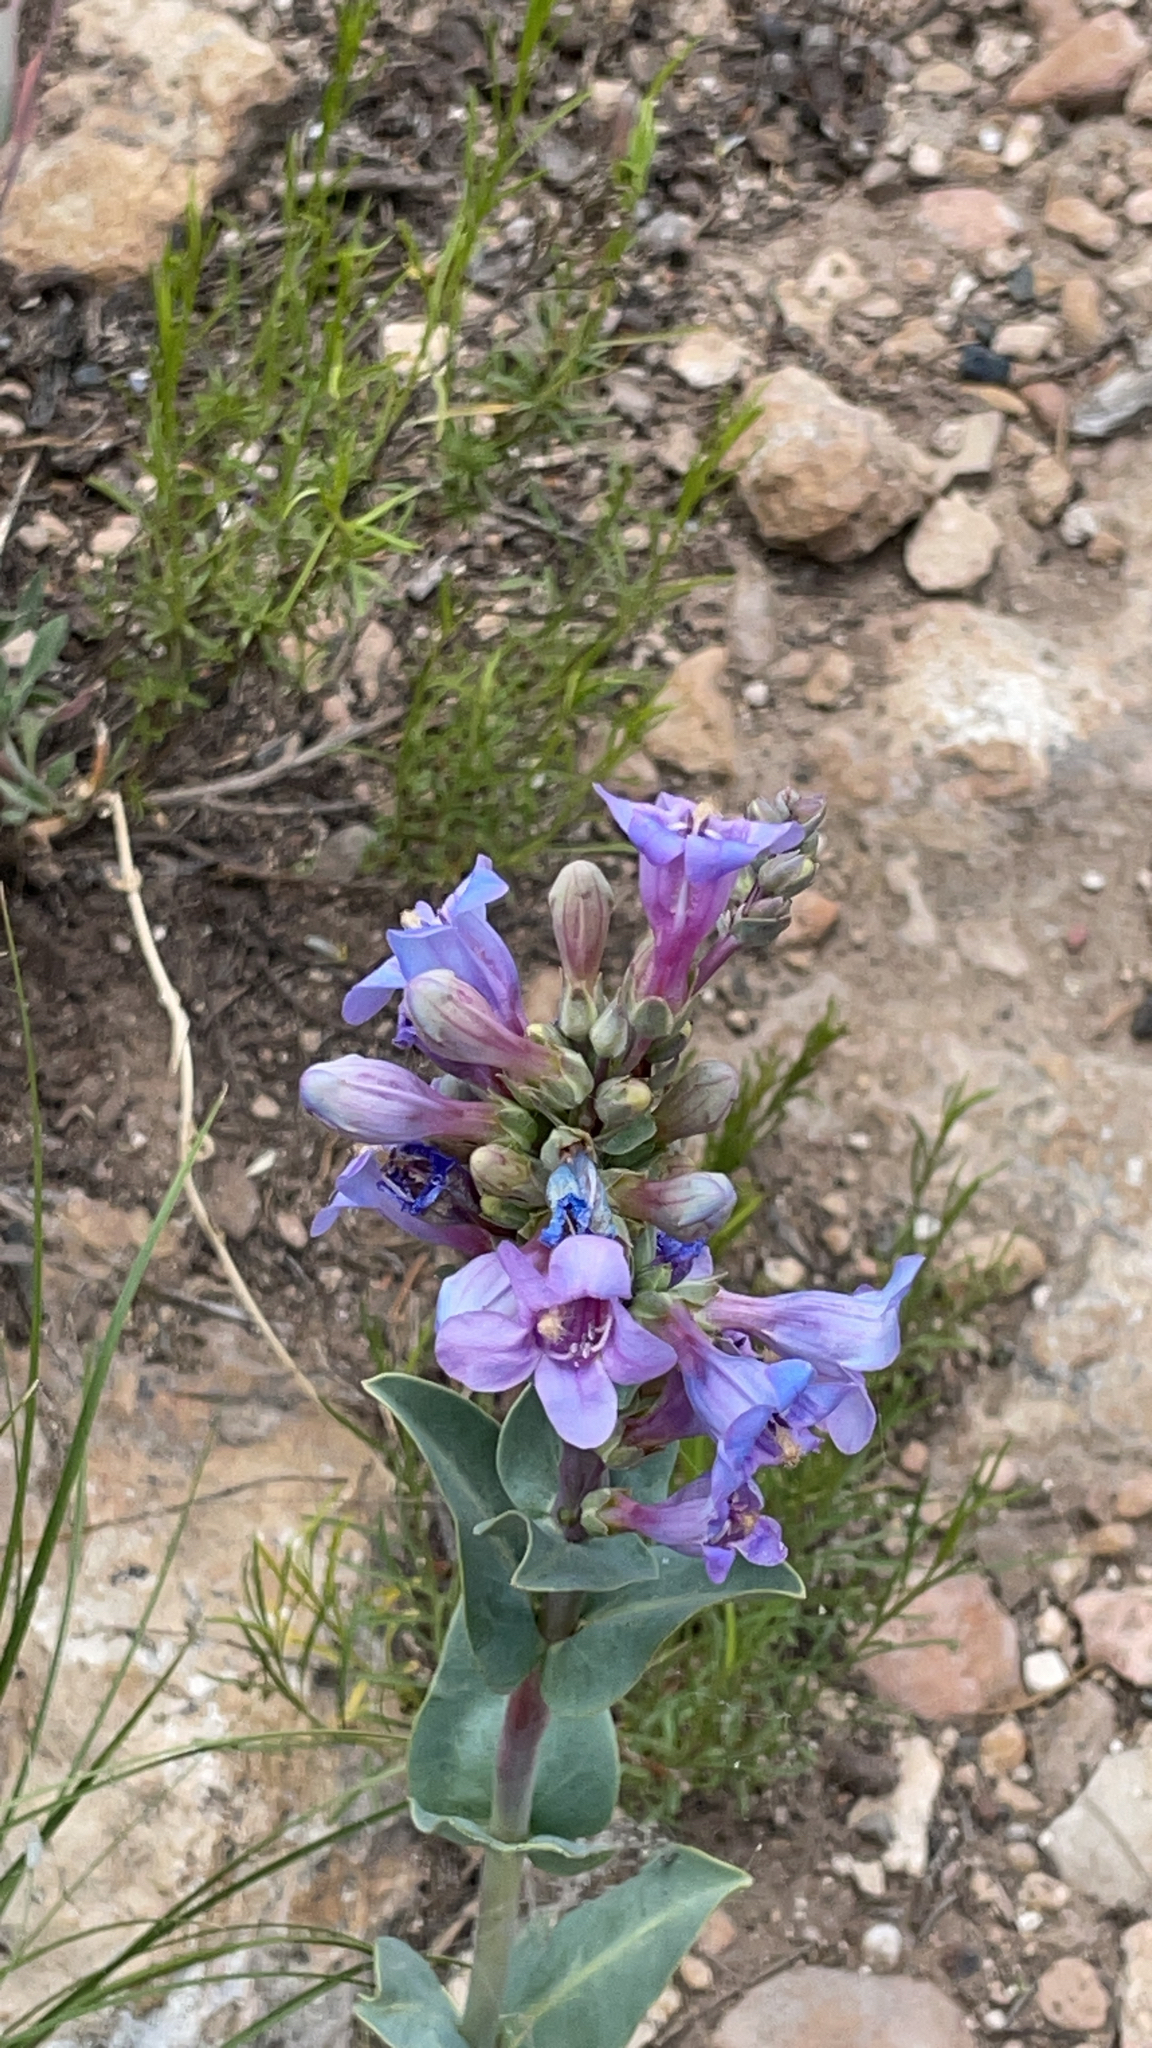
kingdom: Plantae
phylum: Tracheophyta
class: Magnoliopsida
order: Lamiales
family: Plantaginaceae
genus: Penstemon
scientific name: Penstemon pachyphyllus
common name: Thick-leaf penstemon
